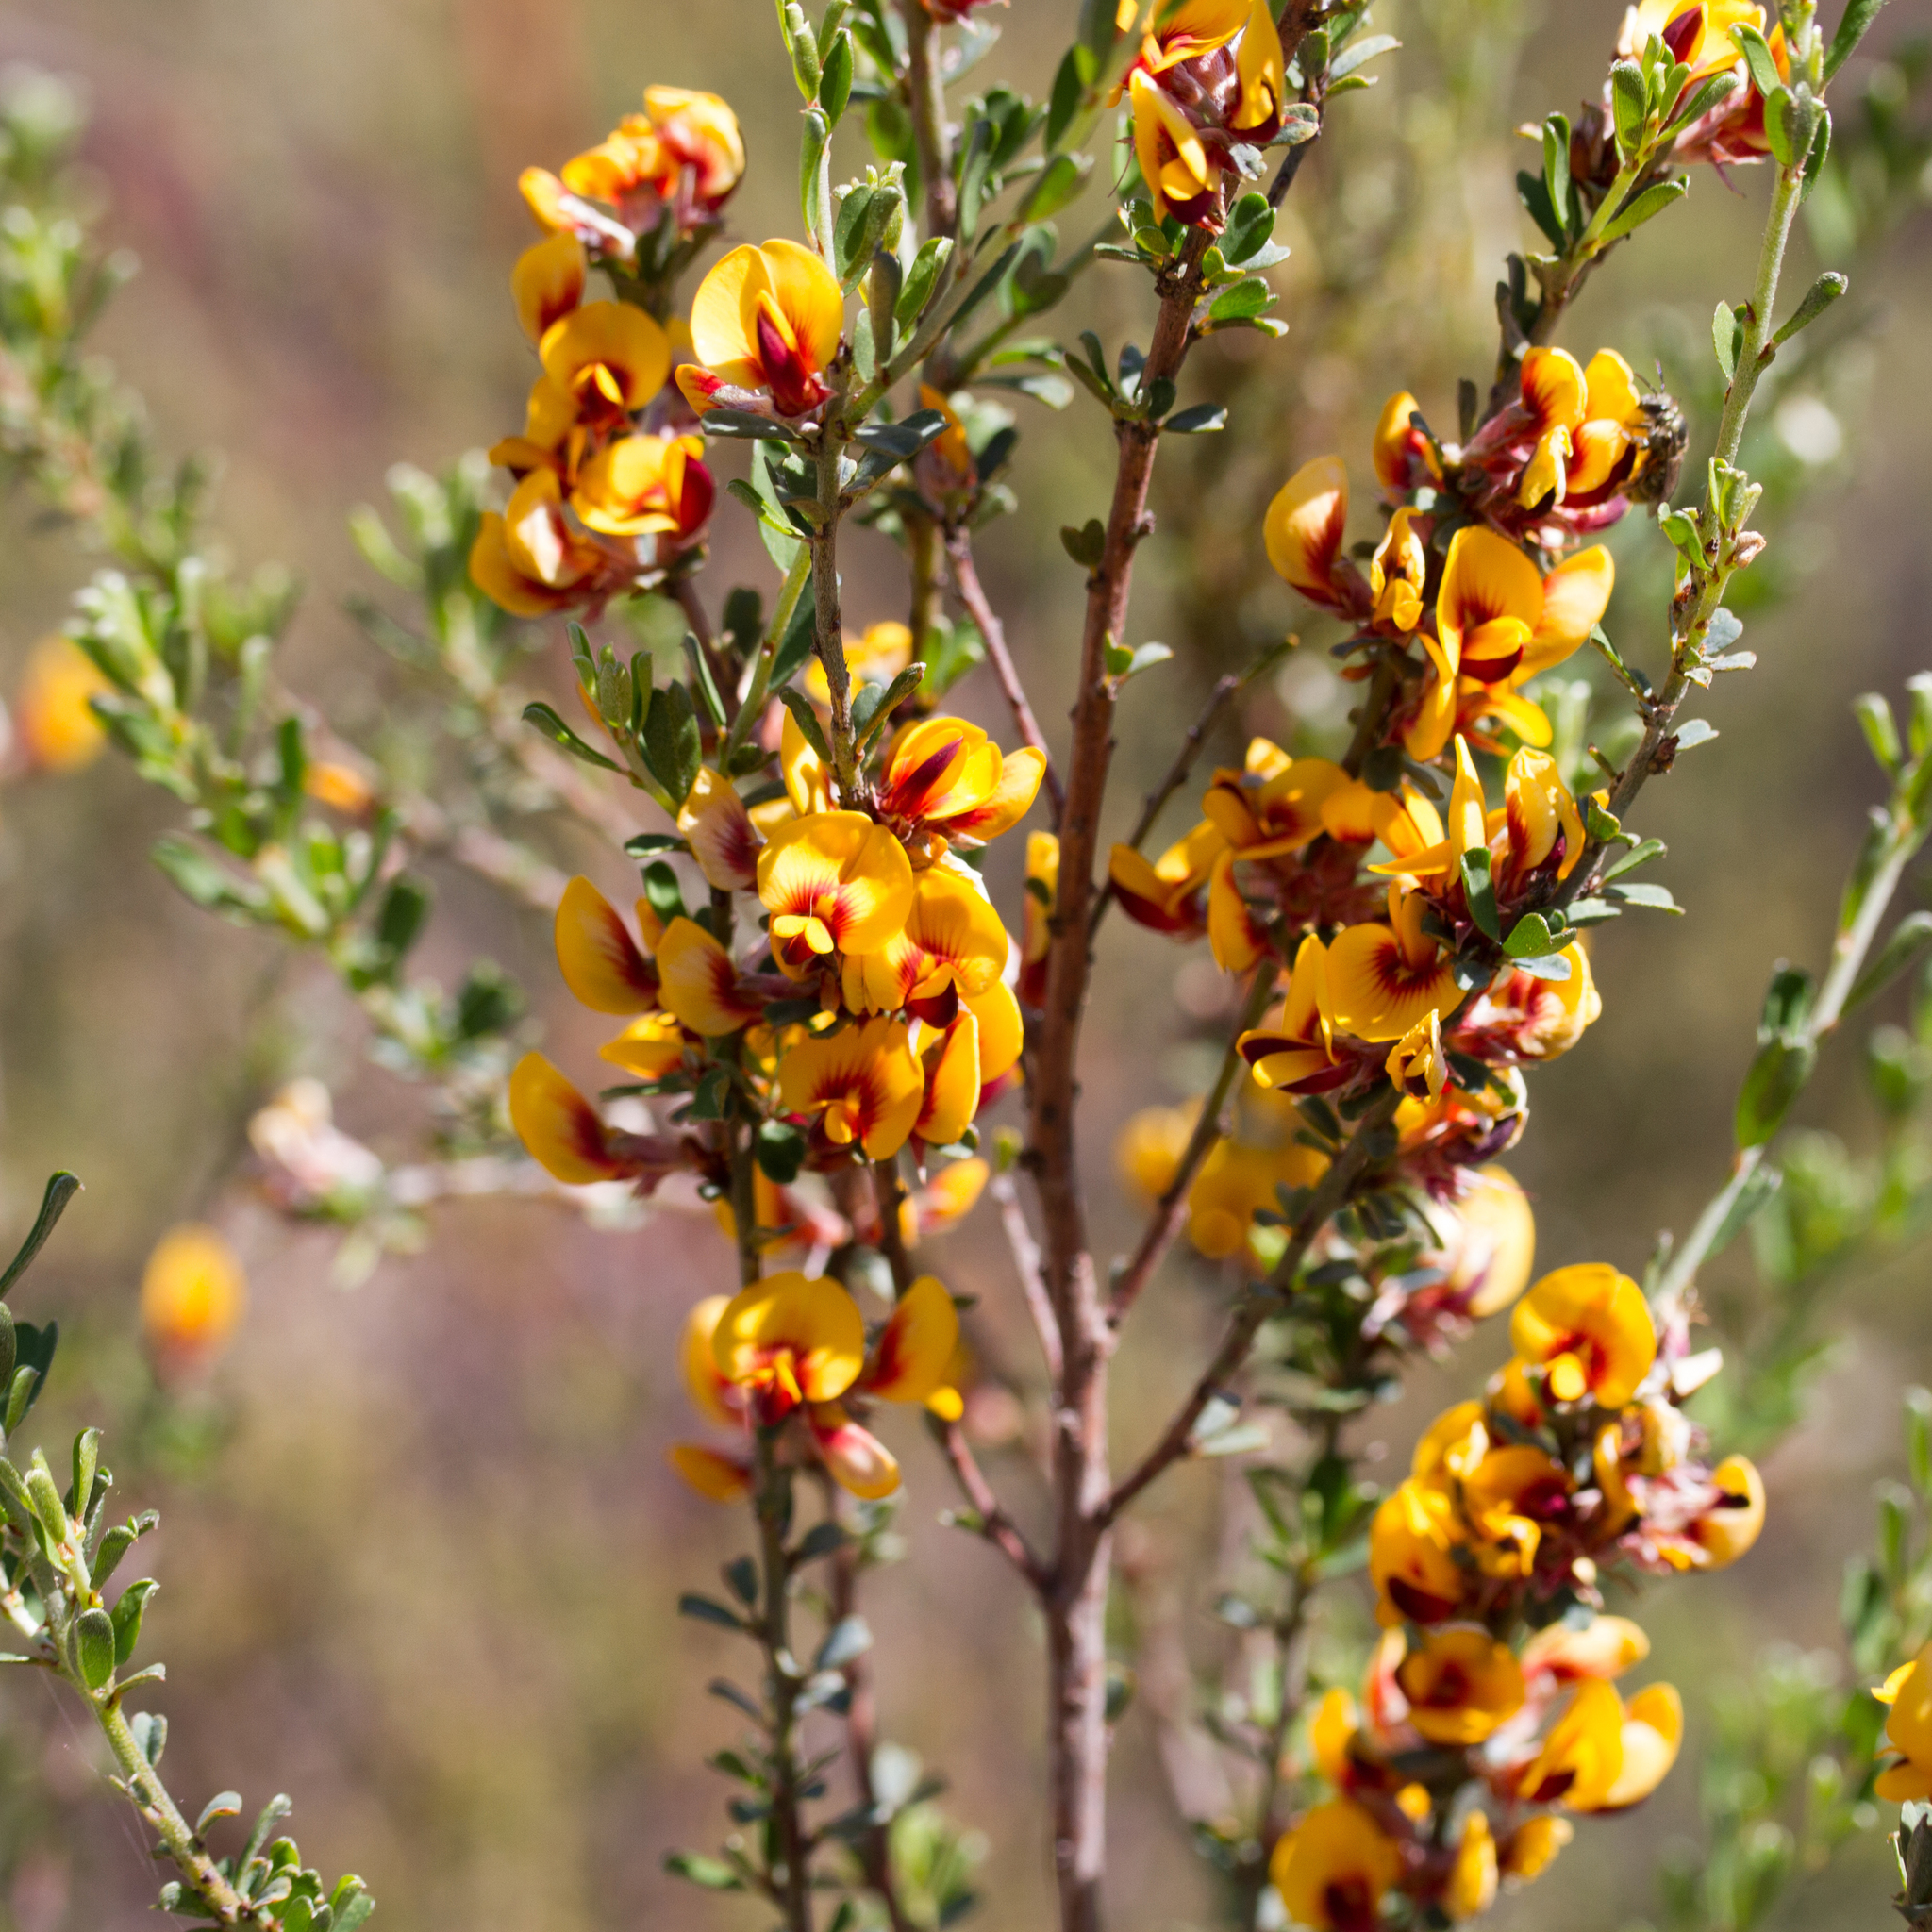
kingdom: Plantae
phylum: Tracheophyta
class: Magnoliopsida
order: Fabales
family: Fabaceae
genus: Pultenaea
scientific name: Pultenaea largiflorens
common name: Twiggy bush-pea
